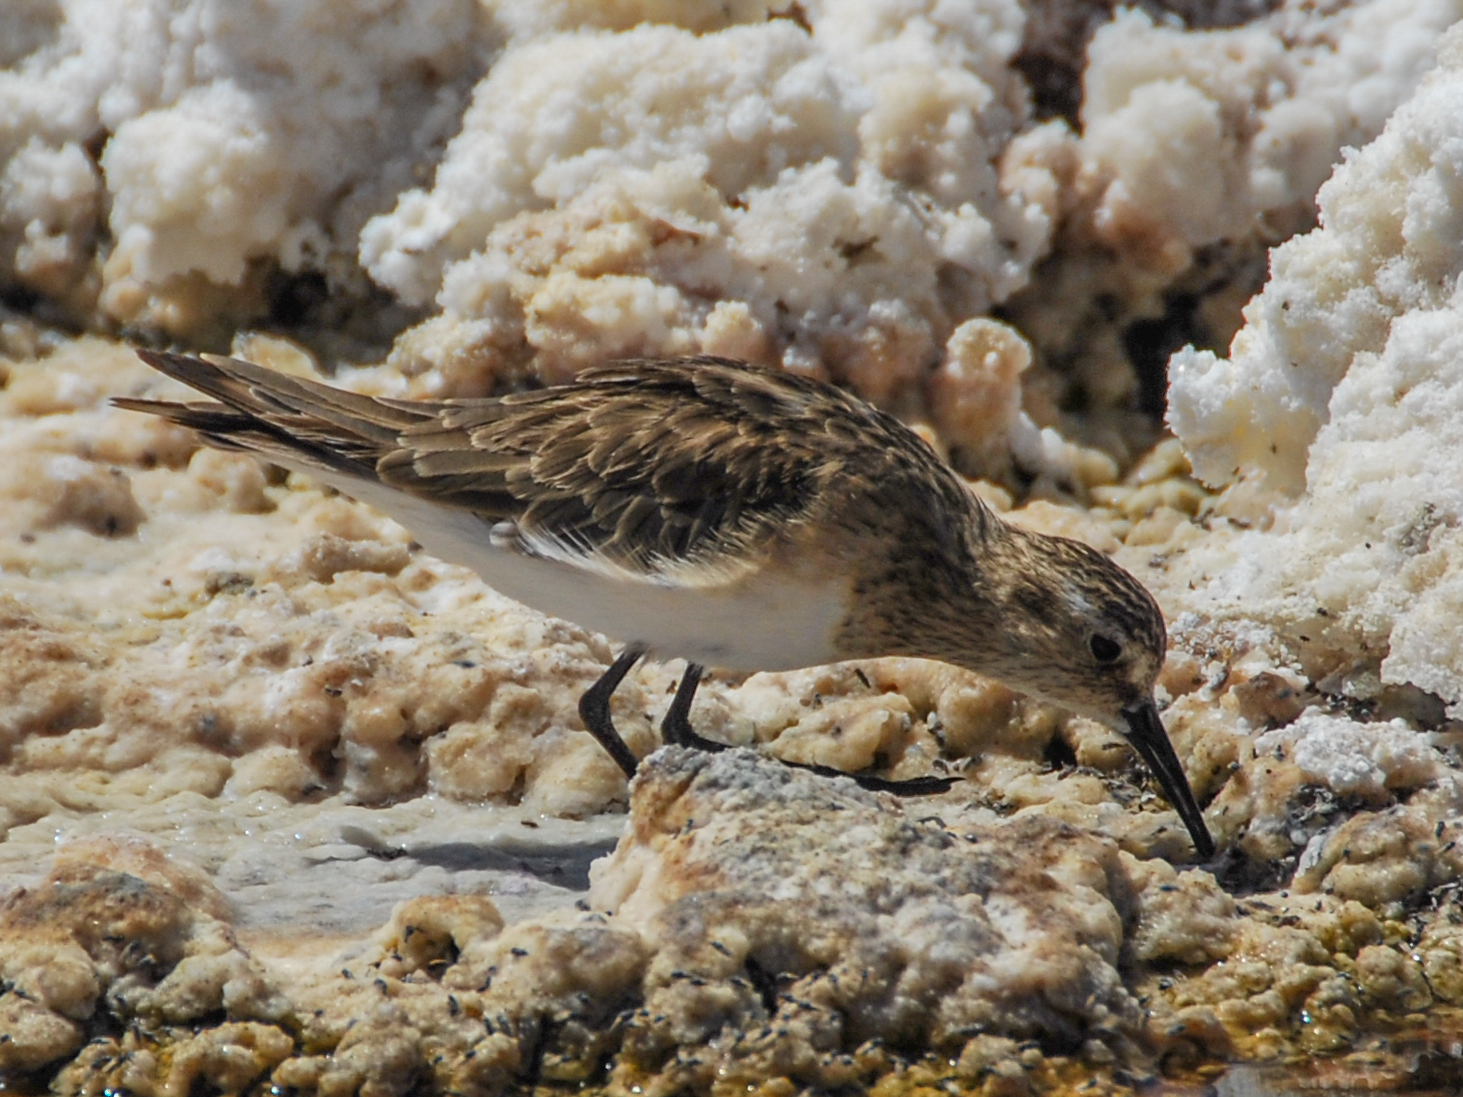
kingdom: Animalia
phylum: Chordata
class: Aves
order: Charadriiformes
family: Scolopacidae
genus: Calidris
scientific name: Calidris bairdii
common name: Baird's sandpiper
